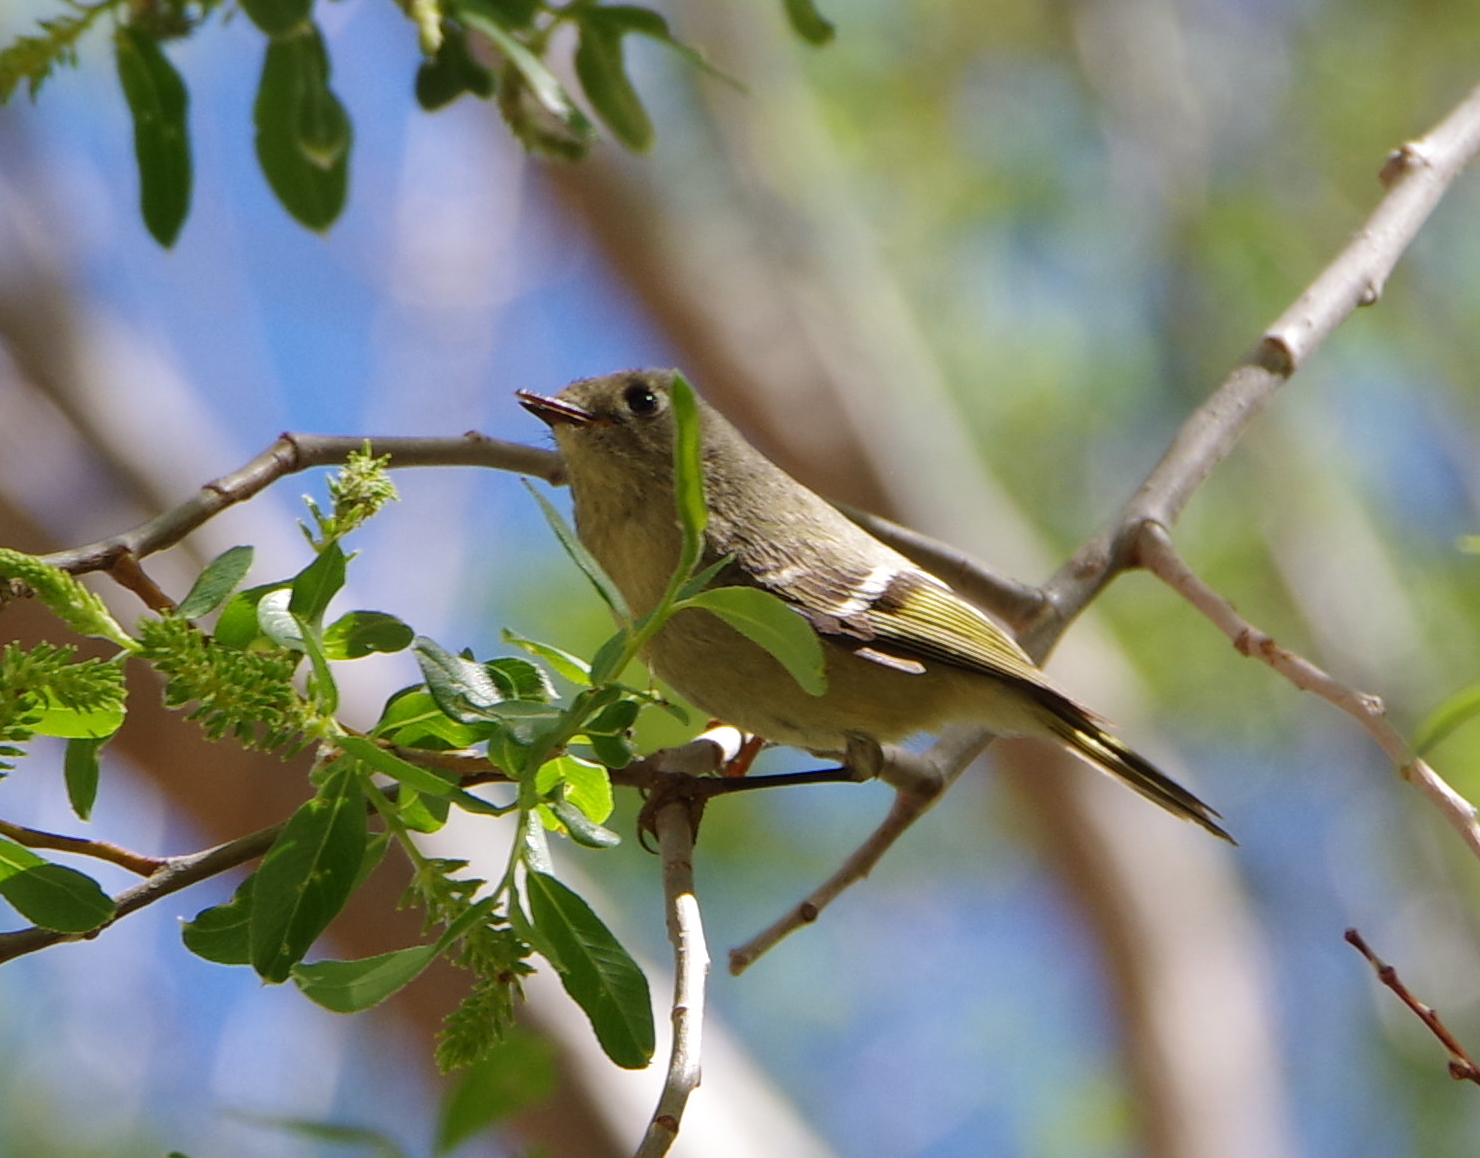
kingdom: Animalia
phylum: Chordata
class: Aves
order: Passeriformes
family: Regulidae
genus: Regulus
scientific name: Regulus calendula
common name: Ruby-crowned kinglet
